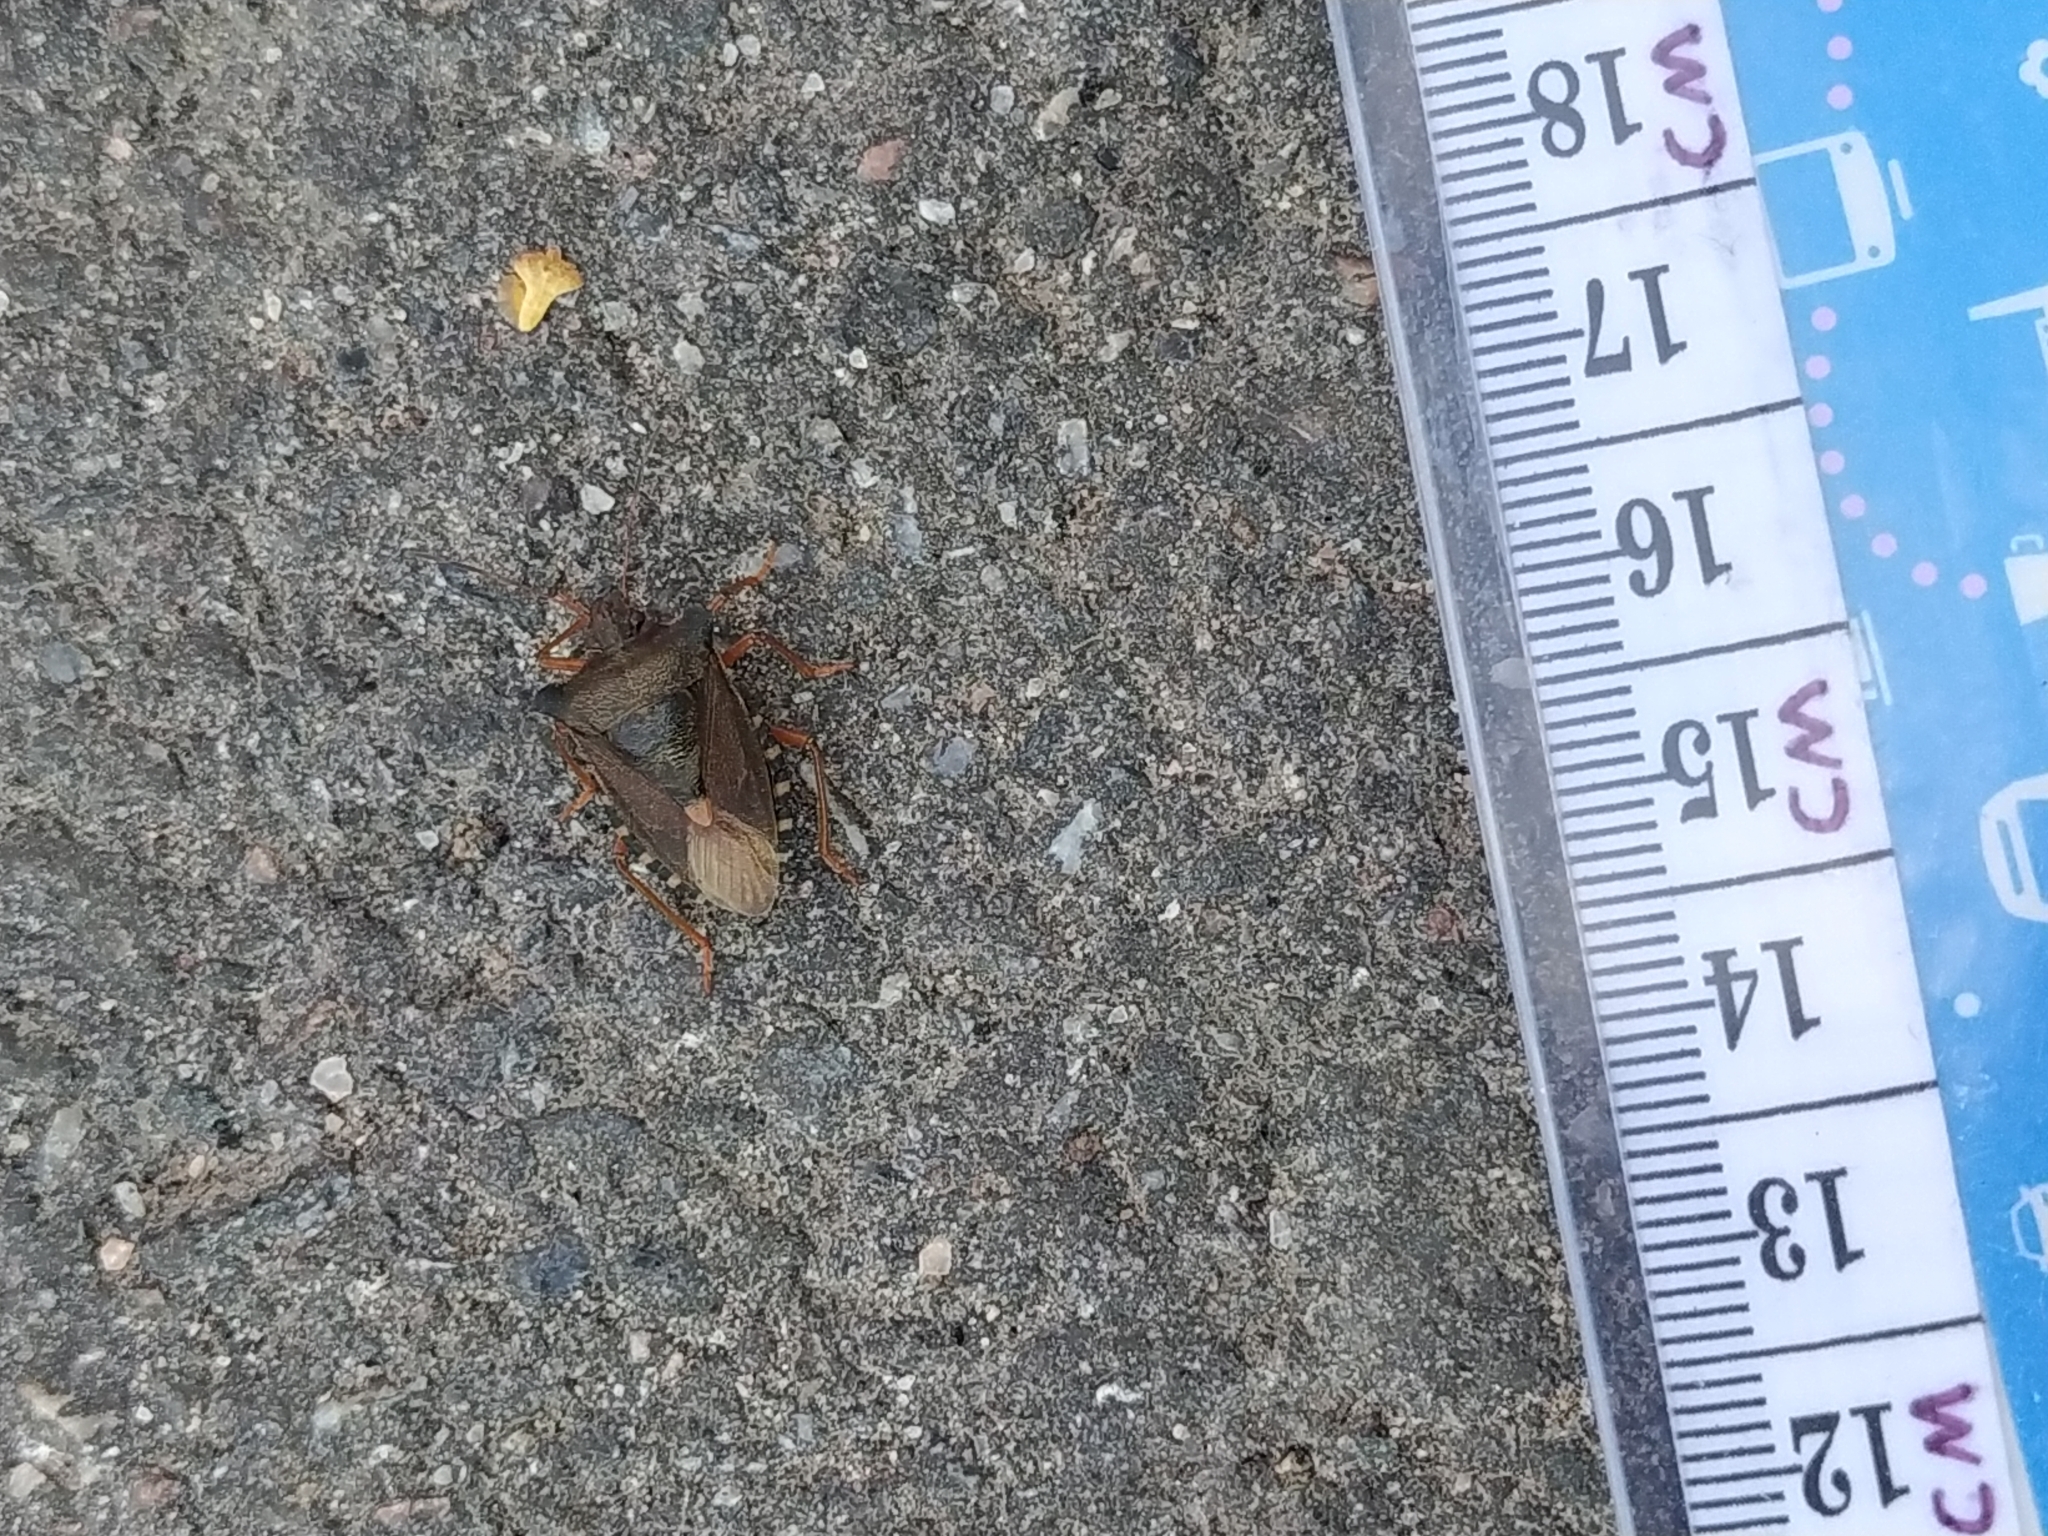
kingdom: Animalia
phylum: Arthropoda
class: Insecta
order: Hemiptera
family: Pentatomidae
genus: Pentatoma
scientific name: Pentatoma rufipes
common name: Forest bug
